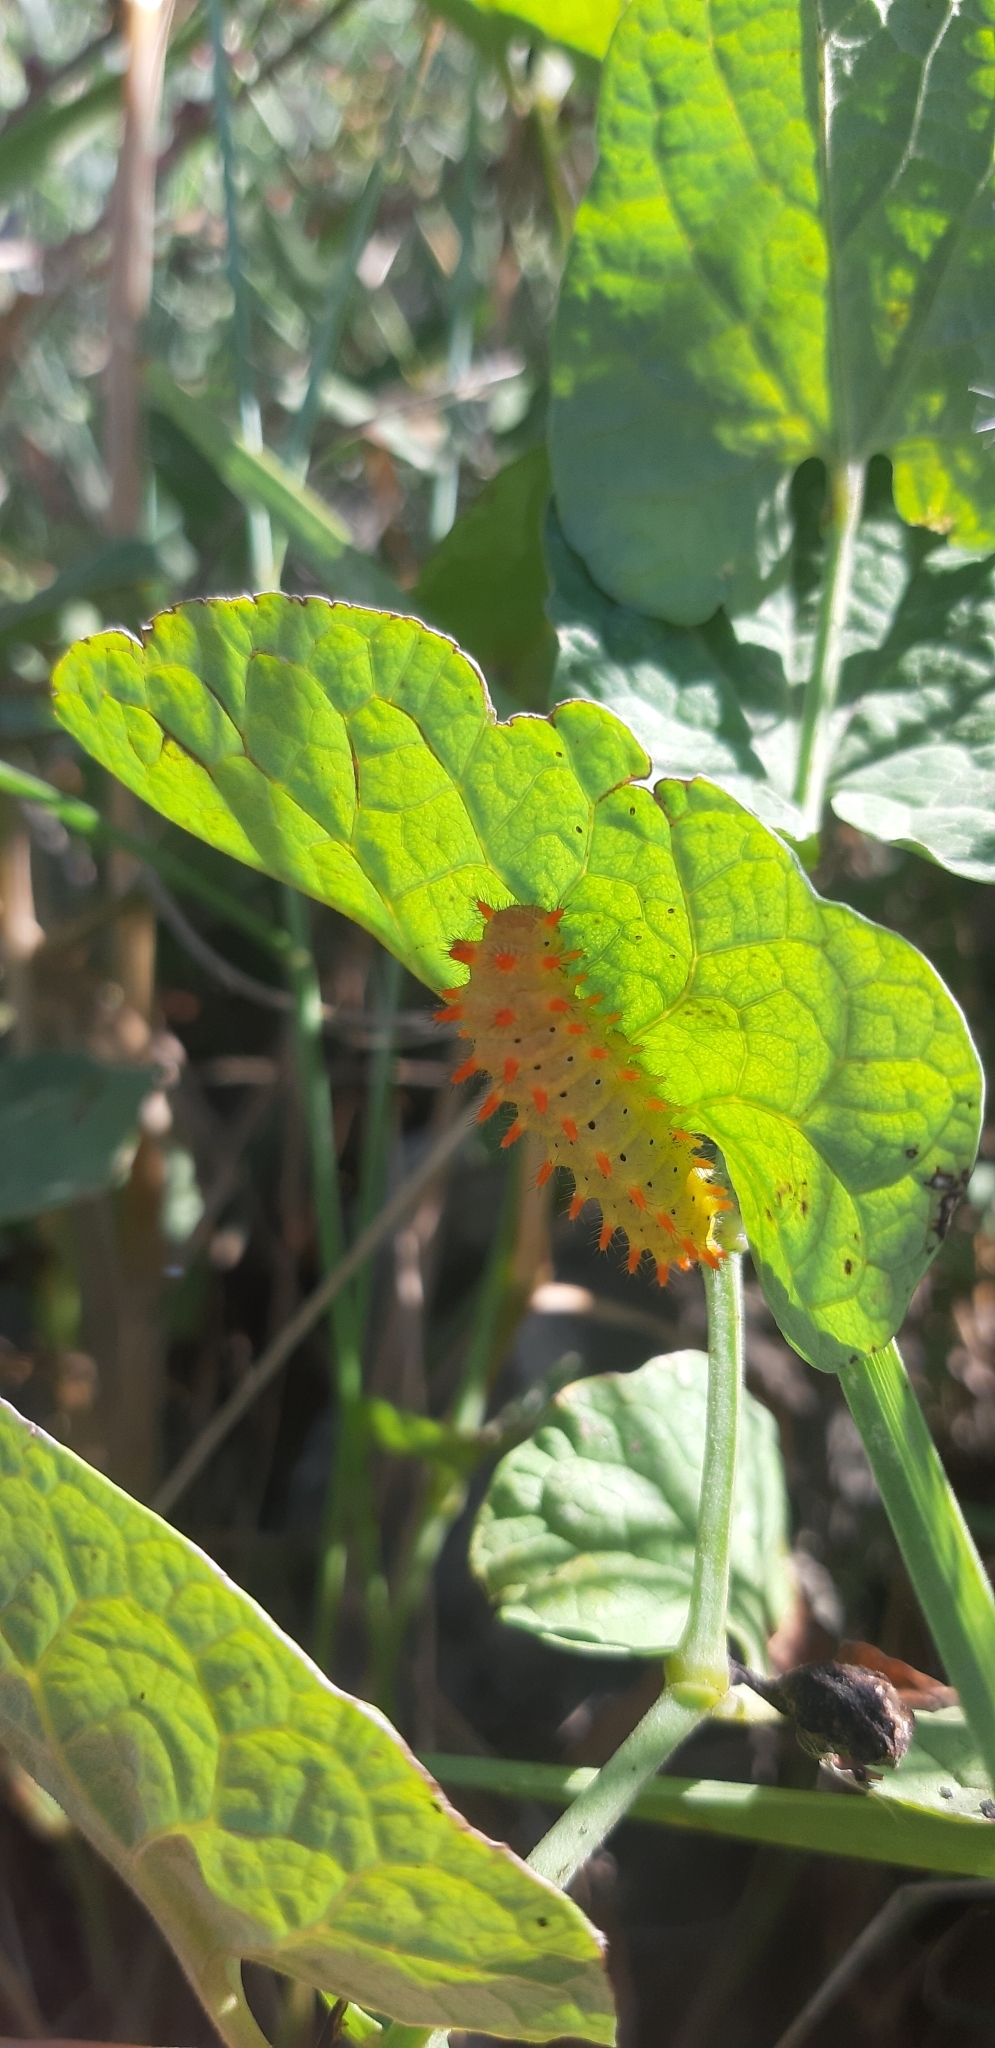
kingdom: Animalia
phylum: Arthropoda
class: Insecta
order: Lepidoptera
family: Papilionidae
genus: Zerynthia
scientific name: Zerynthia cassandra
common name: Italian festoon
